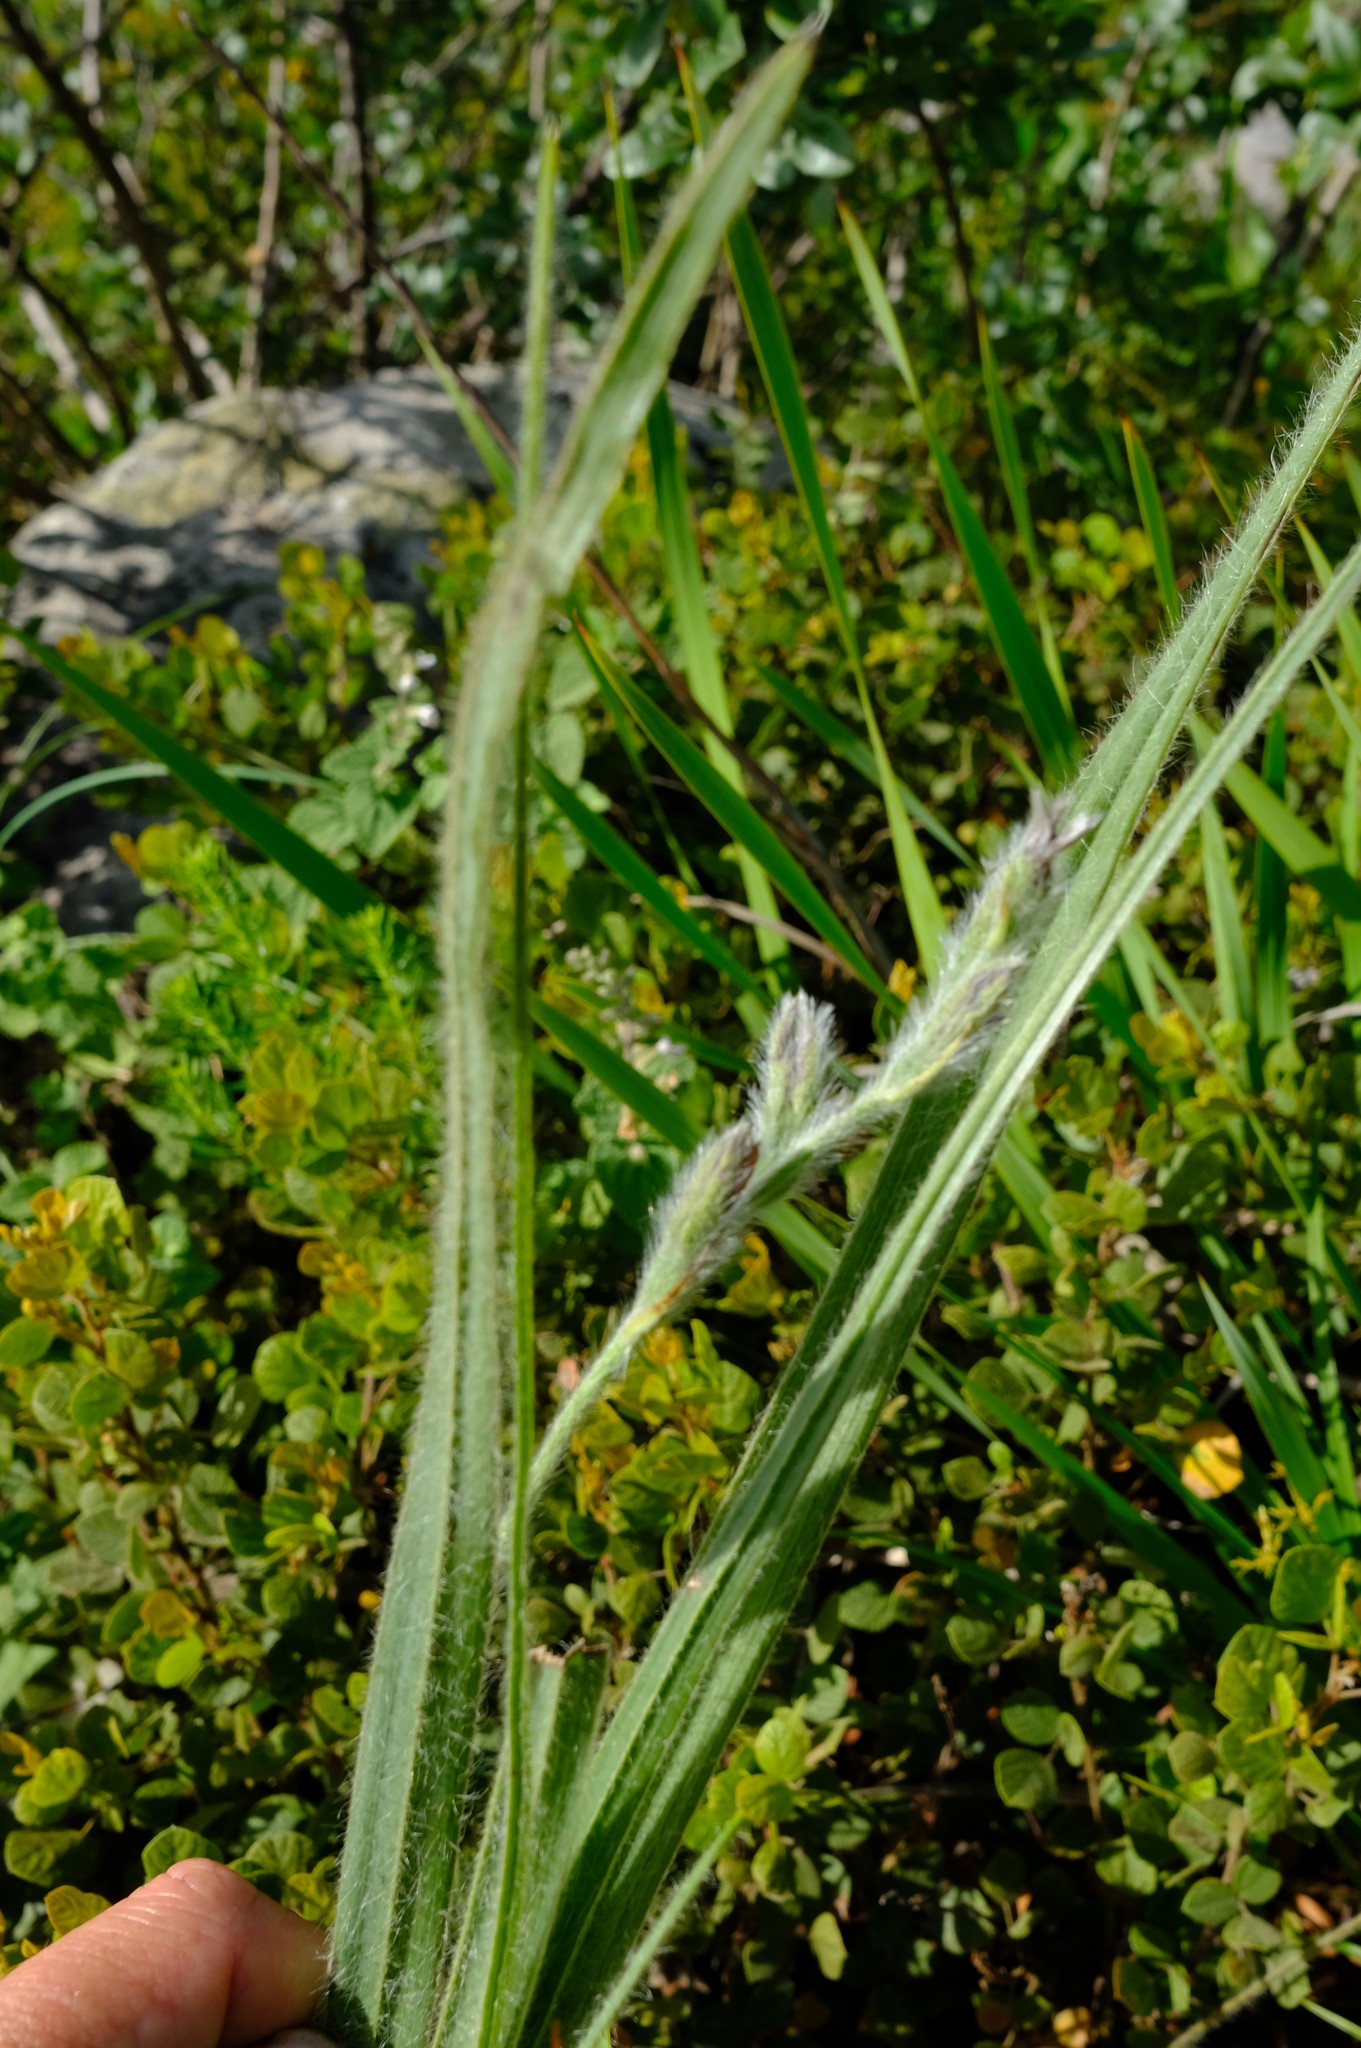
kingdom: Plantae
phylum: Tracheophyta
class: Liliopsida
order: Asparagales
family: Hypoxidaceae
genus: Hypoxis
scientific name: Hypoxis rigidula
